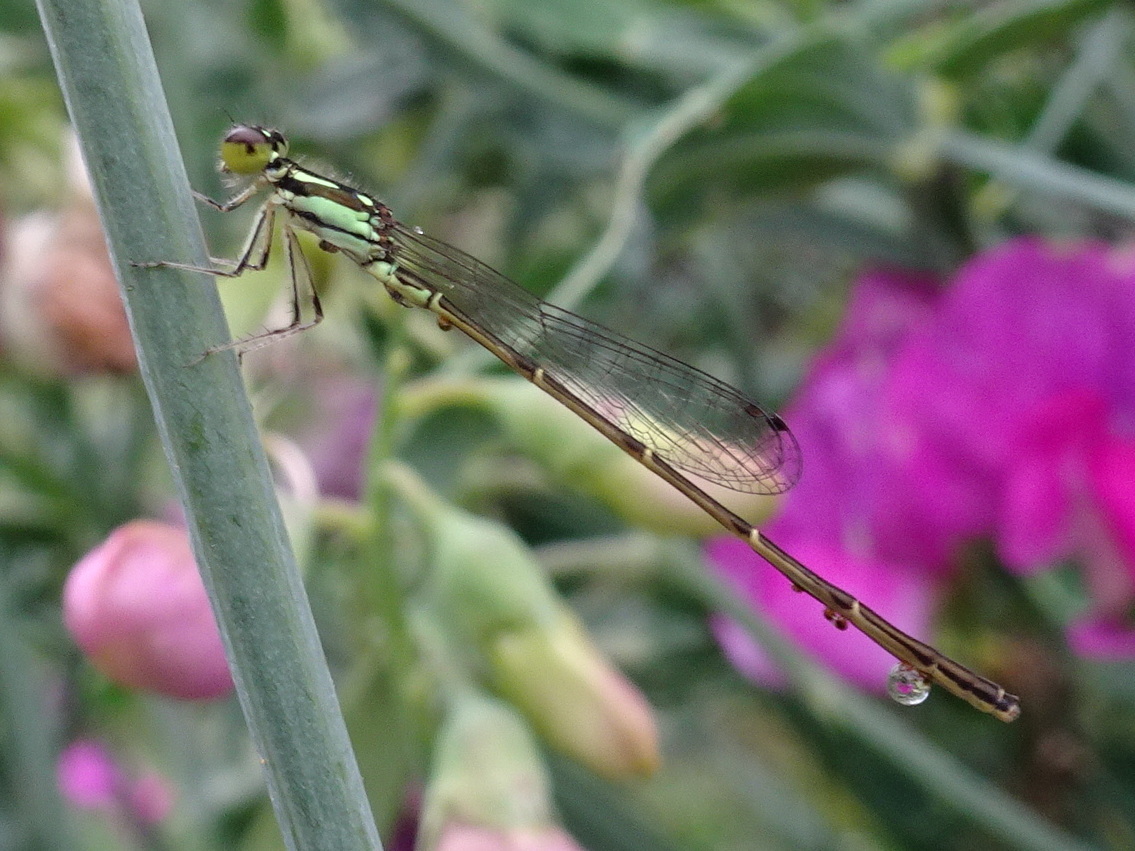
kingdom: Animalia
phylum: Arthropoda
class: Insecta
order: Odonata
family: Coenagrionidae
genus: Ischnura
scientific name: Ischnura posita
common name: Fragile forktail
